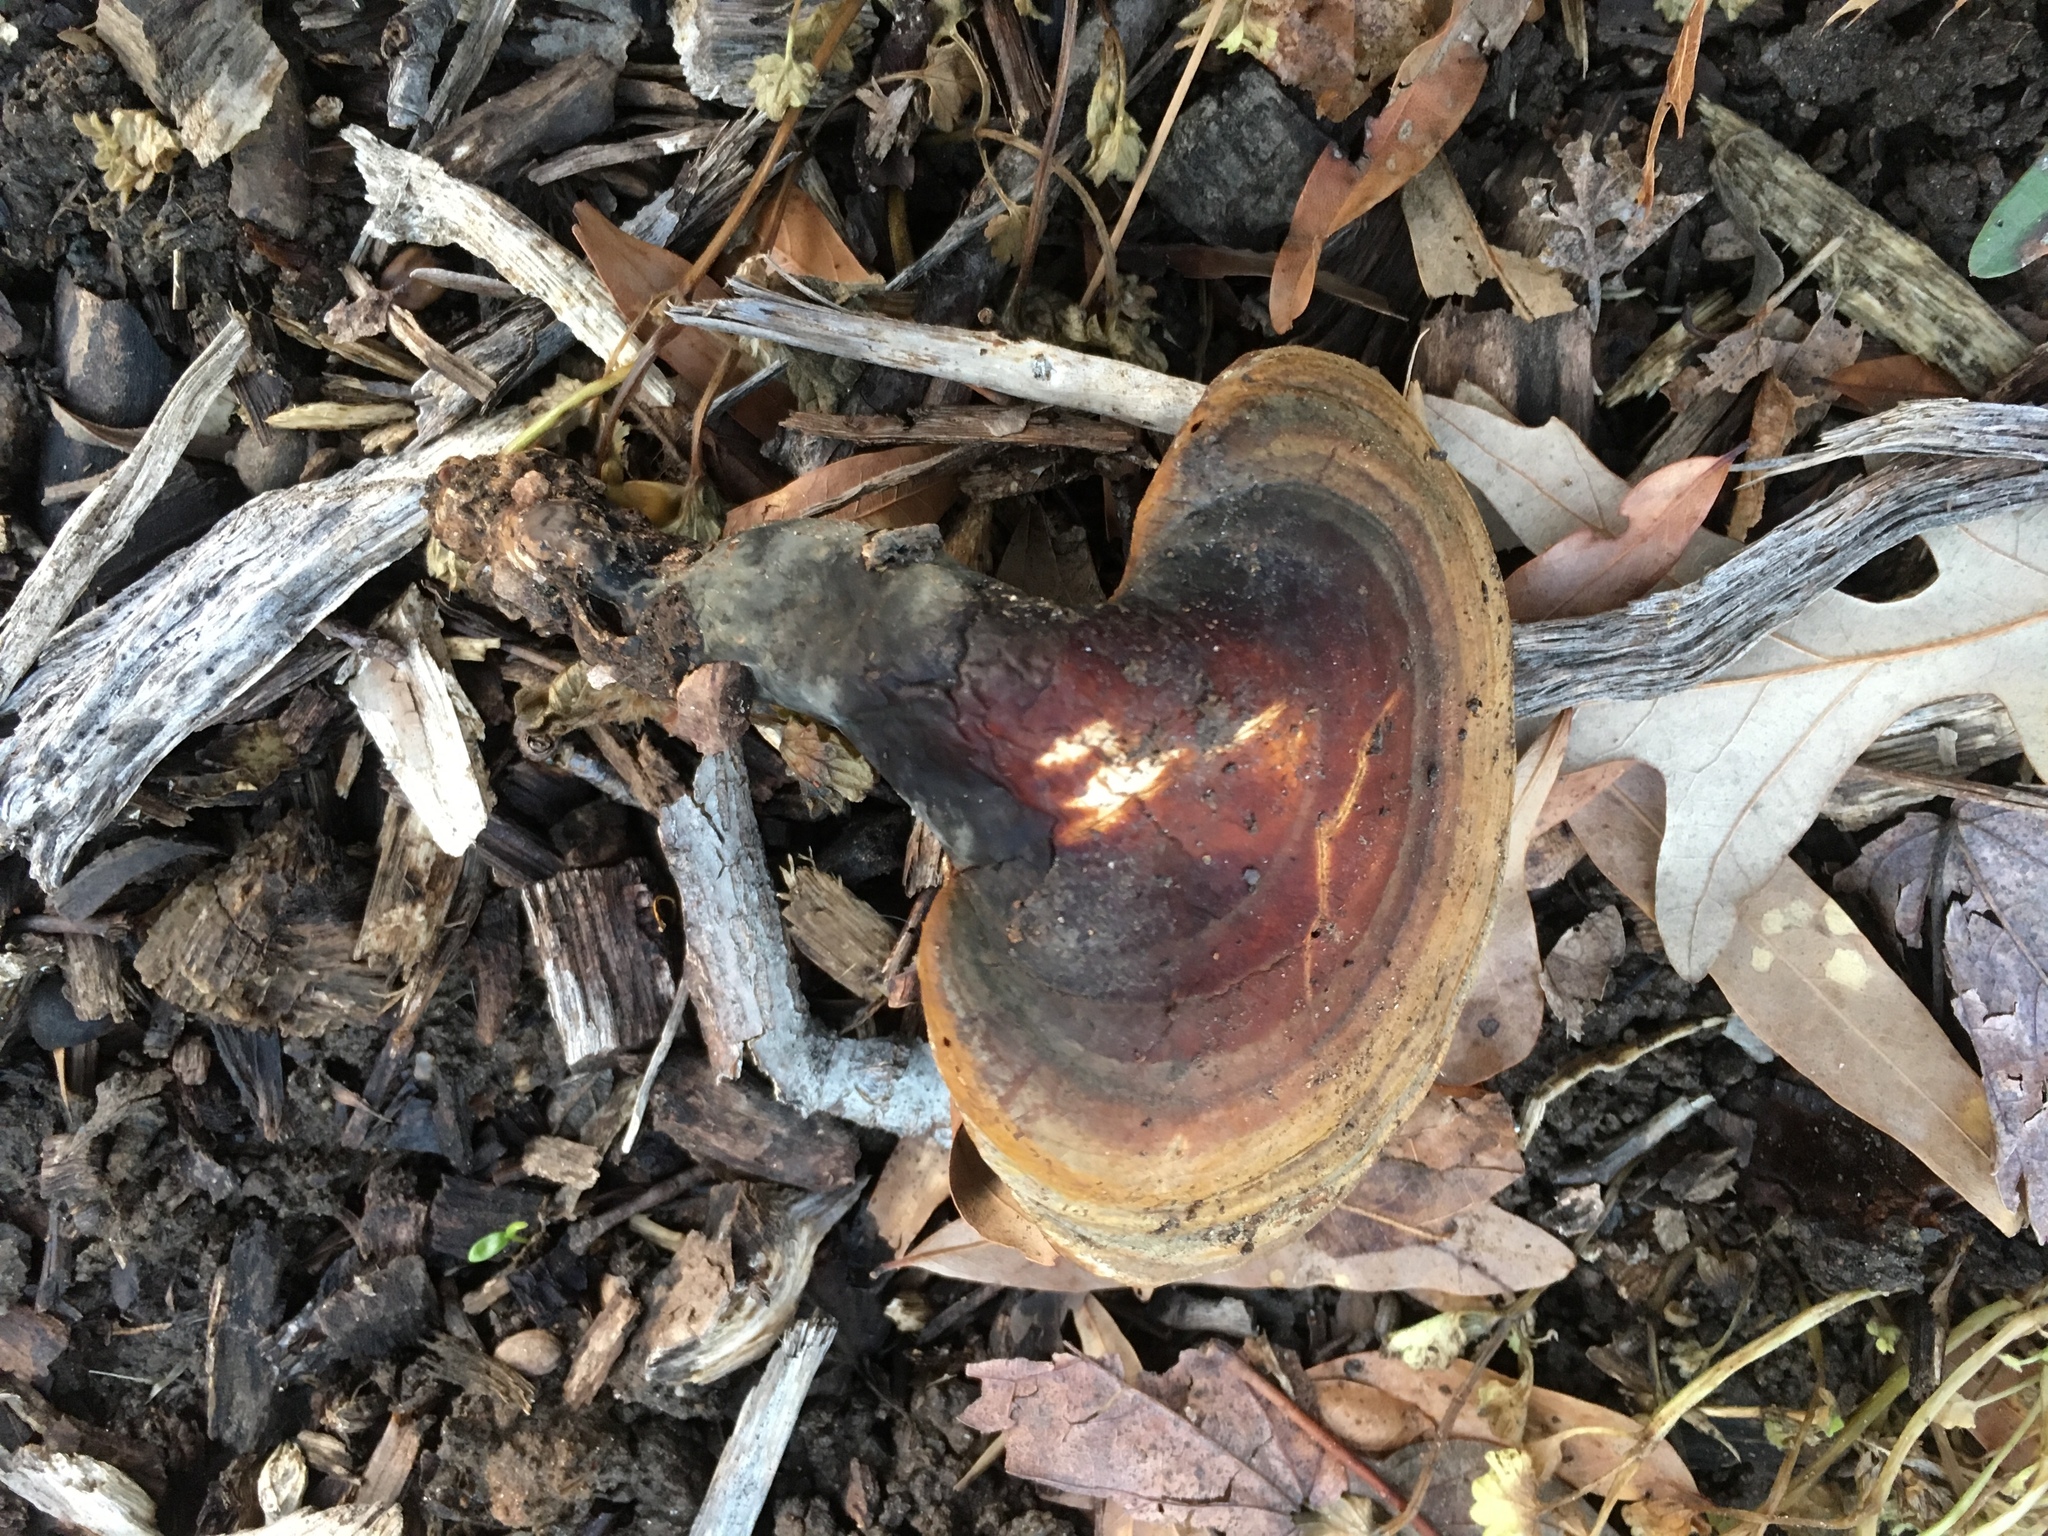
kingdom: Fungi
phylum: Basidiomycota
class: Agaricomycetes
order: Polyporales
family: Polyporaceae
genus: Ganoderma
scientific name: Ganoderma curtisii
